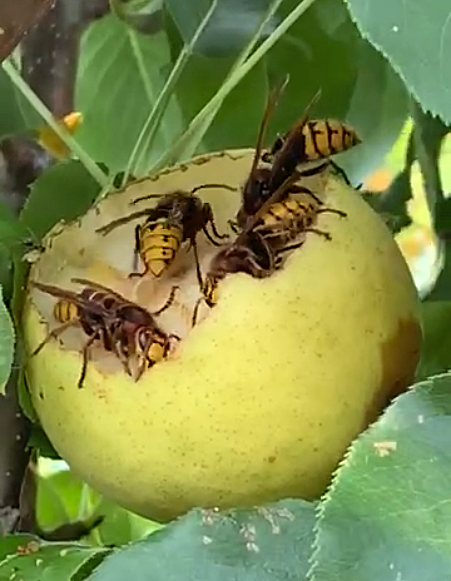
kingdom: Animalia
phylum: Arthropoda
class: Insecta
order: Hymenoptera
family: Vespidae
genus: Vespa
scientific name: Vespa crabro
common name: Hornet
